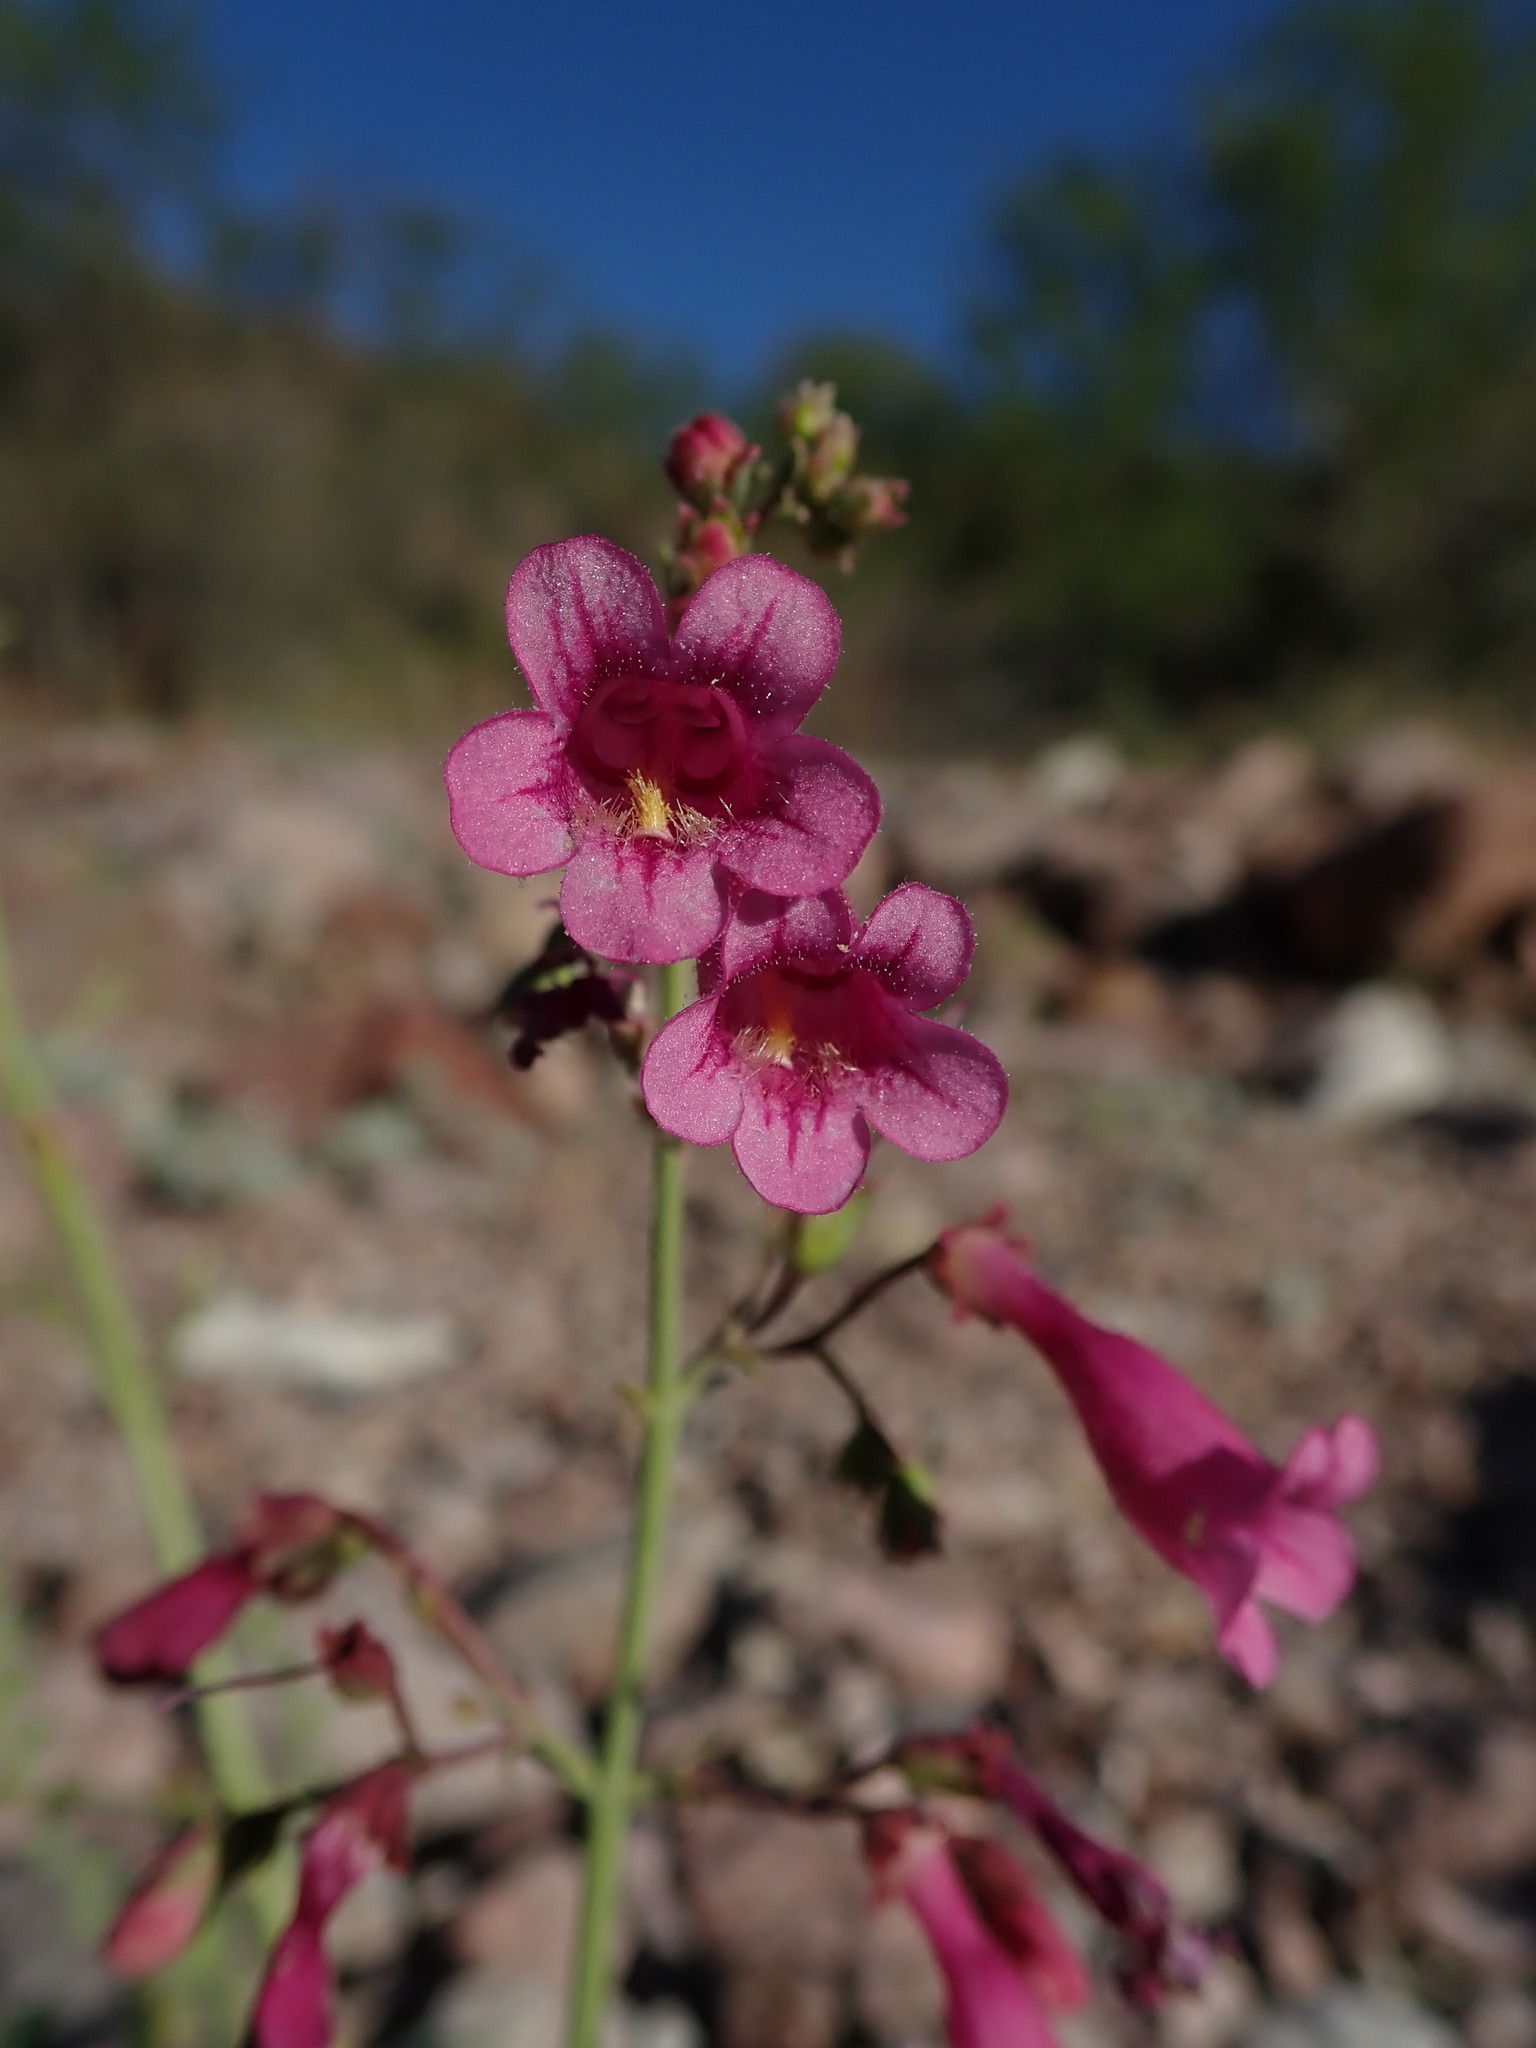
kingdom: Plantae
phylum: Tracheophyta
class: Magnoliopsida
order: Lamiales
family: Plantaginaceae
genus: Penstemon
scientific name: Penstemon parryi
